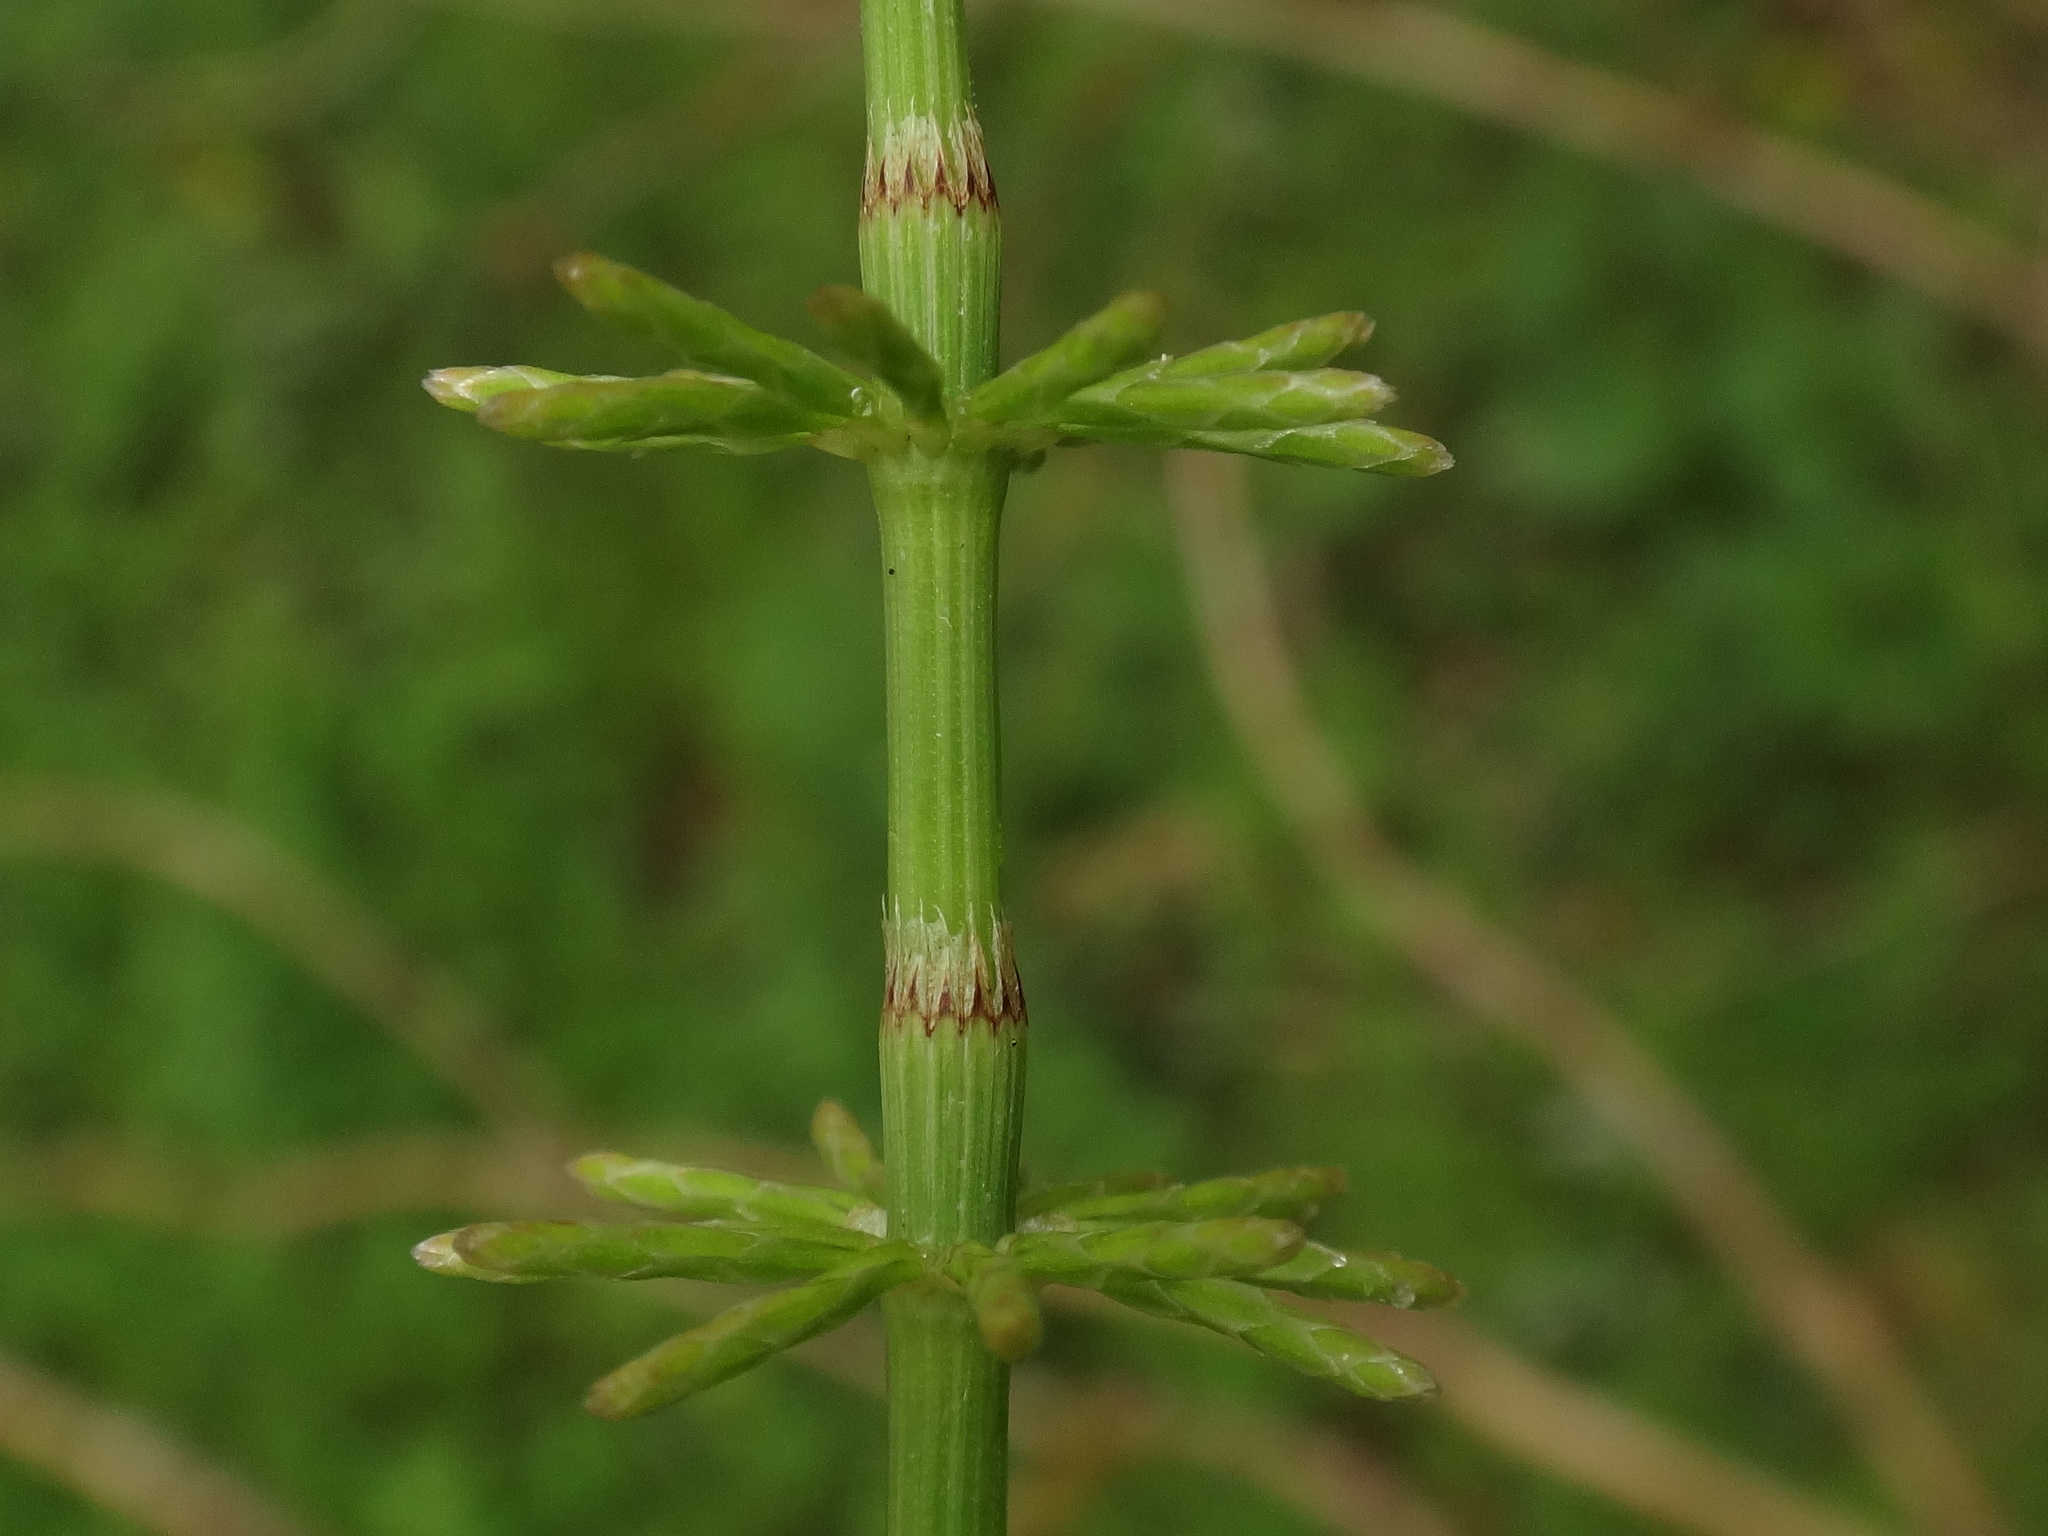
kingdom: Plantae
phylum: Tracheophyta
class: Polypodiopsida
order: Equisetales
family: Equisetaceae
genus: Equisetum
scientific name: Equisetum pratense
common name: Meadow horsetail
